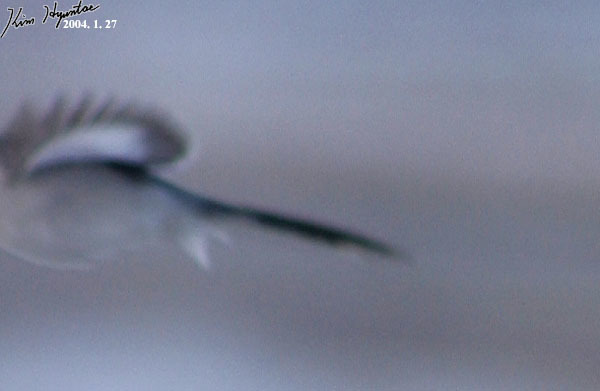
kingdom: Animalia
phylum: Chordata
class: Aves
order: Passeriformes
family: Laniidae
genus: Lanius
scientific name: Lanius sphenocercus
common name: Chinese grey shrike
